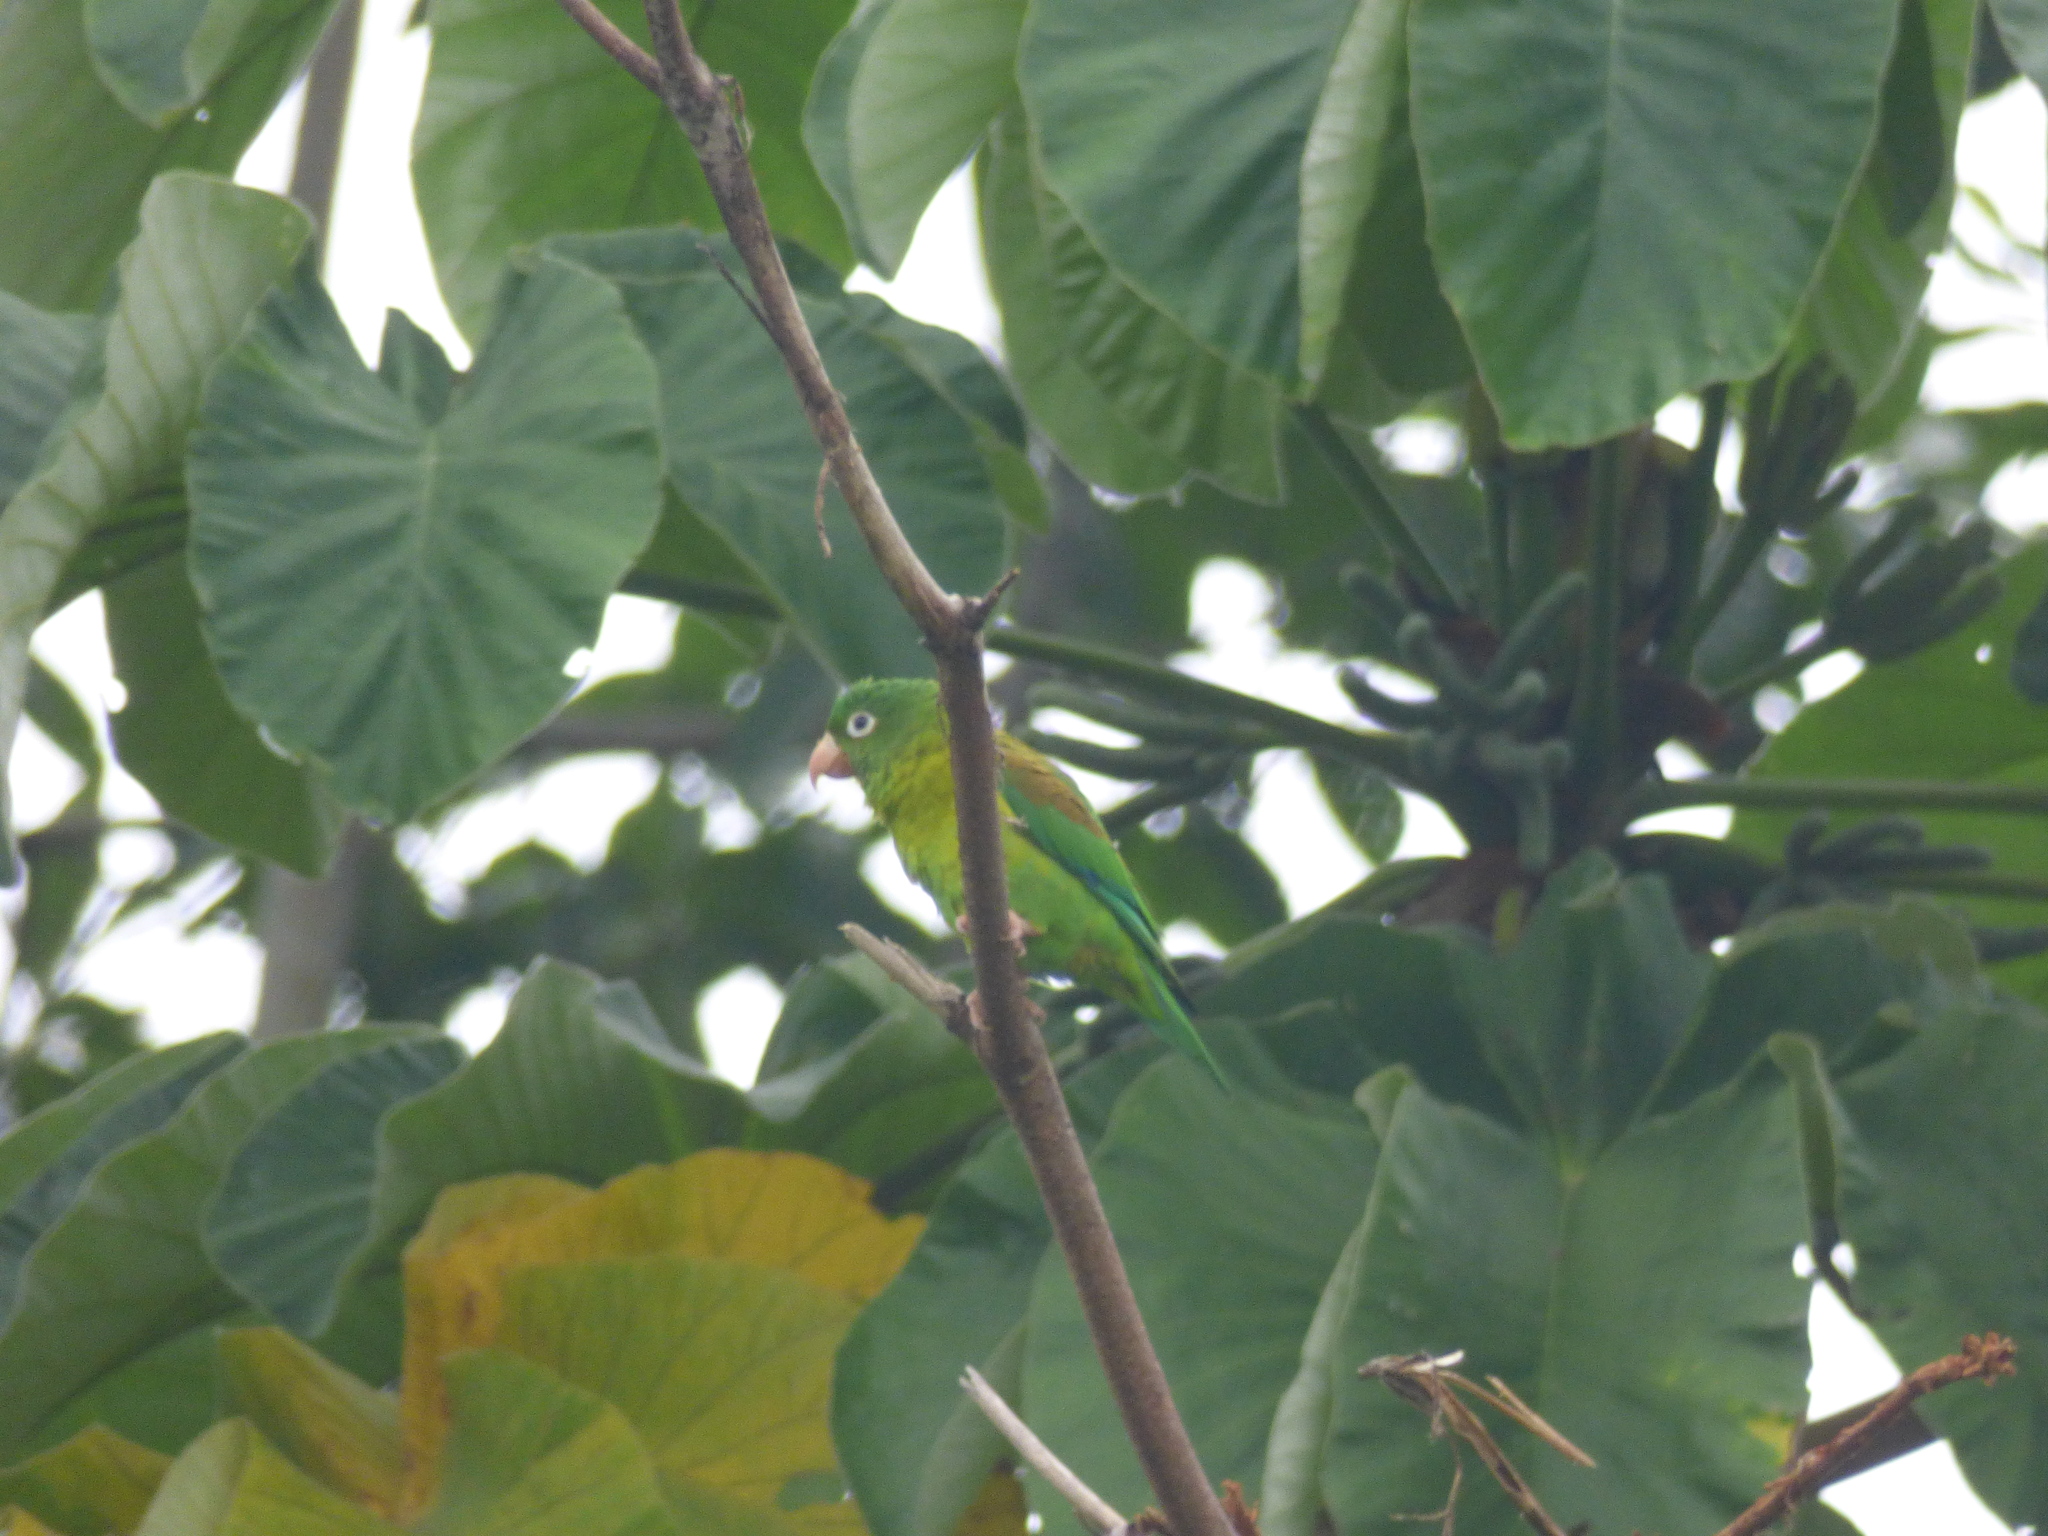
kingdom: Animalia
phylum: Chordata
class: Aves
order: Psittaciformes
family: Psittacidae
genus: Brotogeris
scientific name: Brotogeris jugularis
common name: Orange-chinned parakeet
